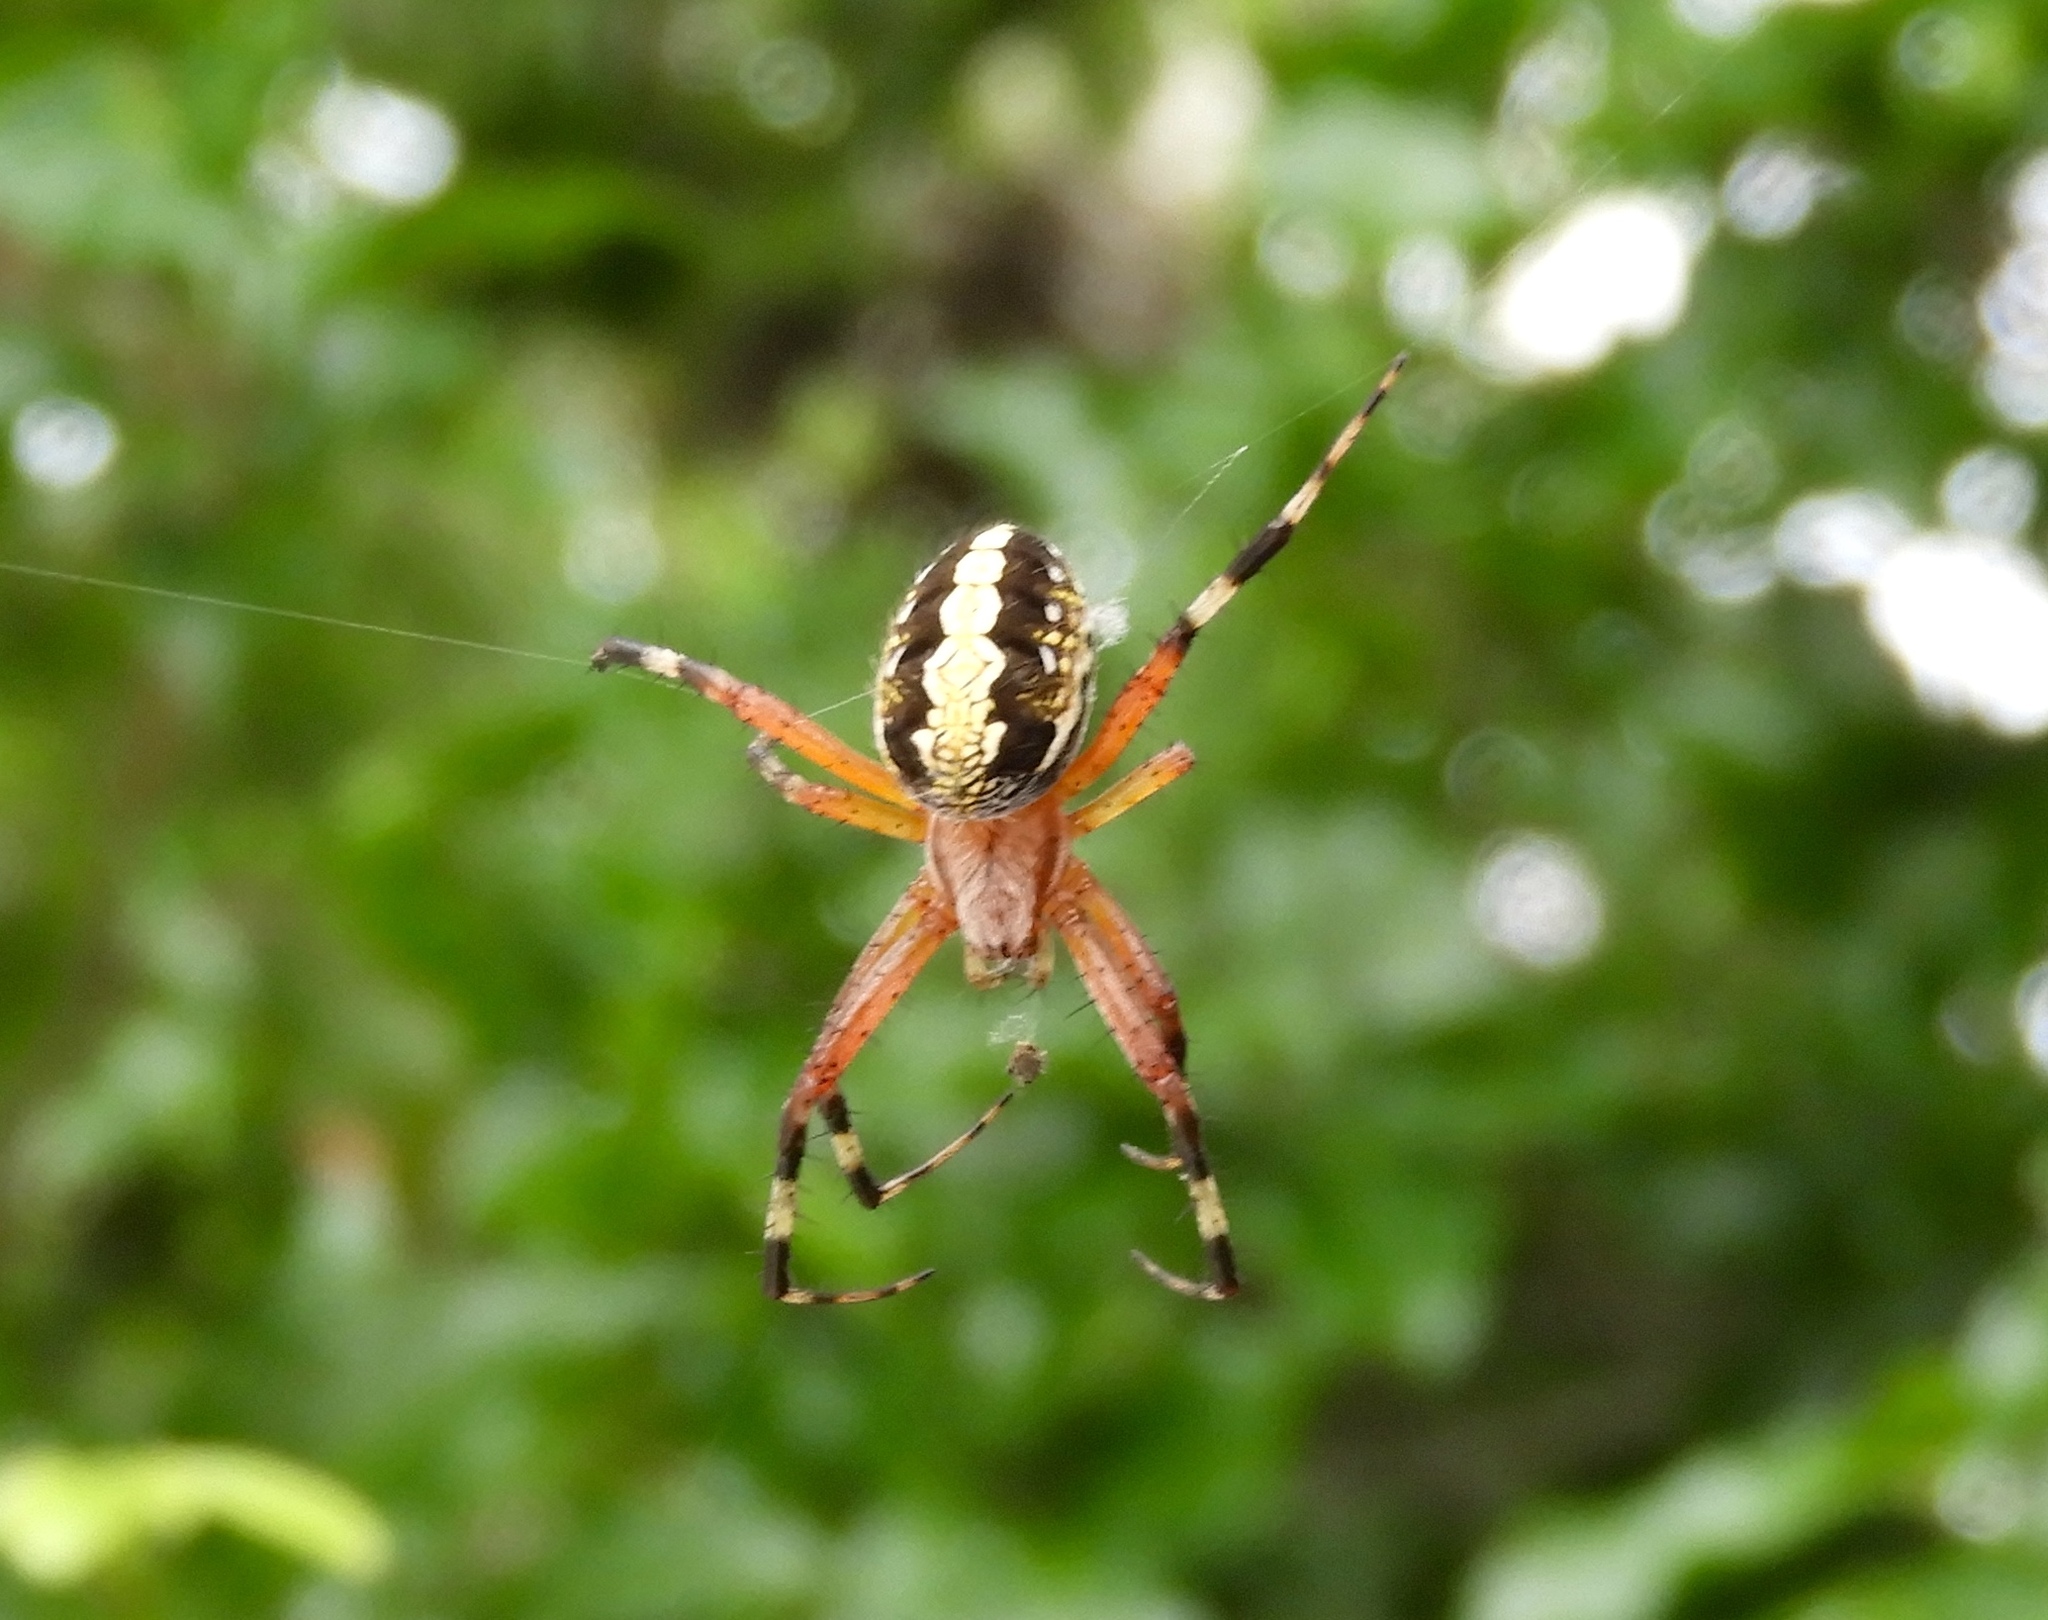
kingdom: Animalia
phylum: Arthropoda
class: Arachnida
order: Araneae
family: Araneidae
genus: Neoscona
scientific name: Neoscona oaxacensis
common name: Orb weavers
